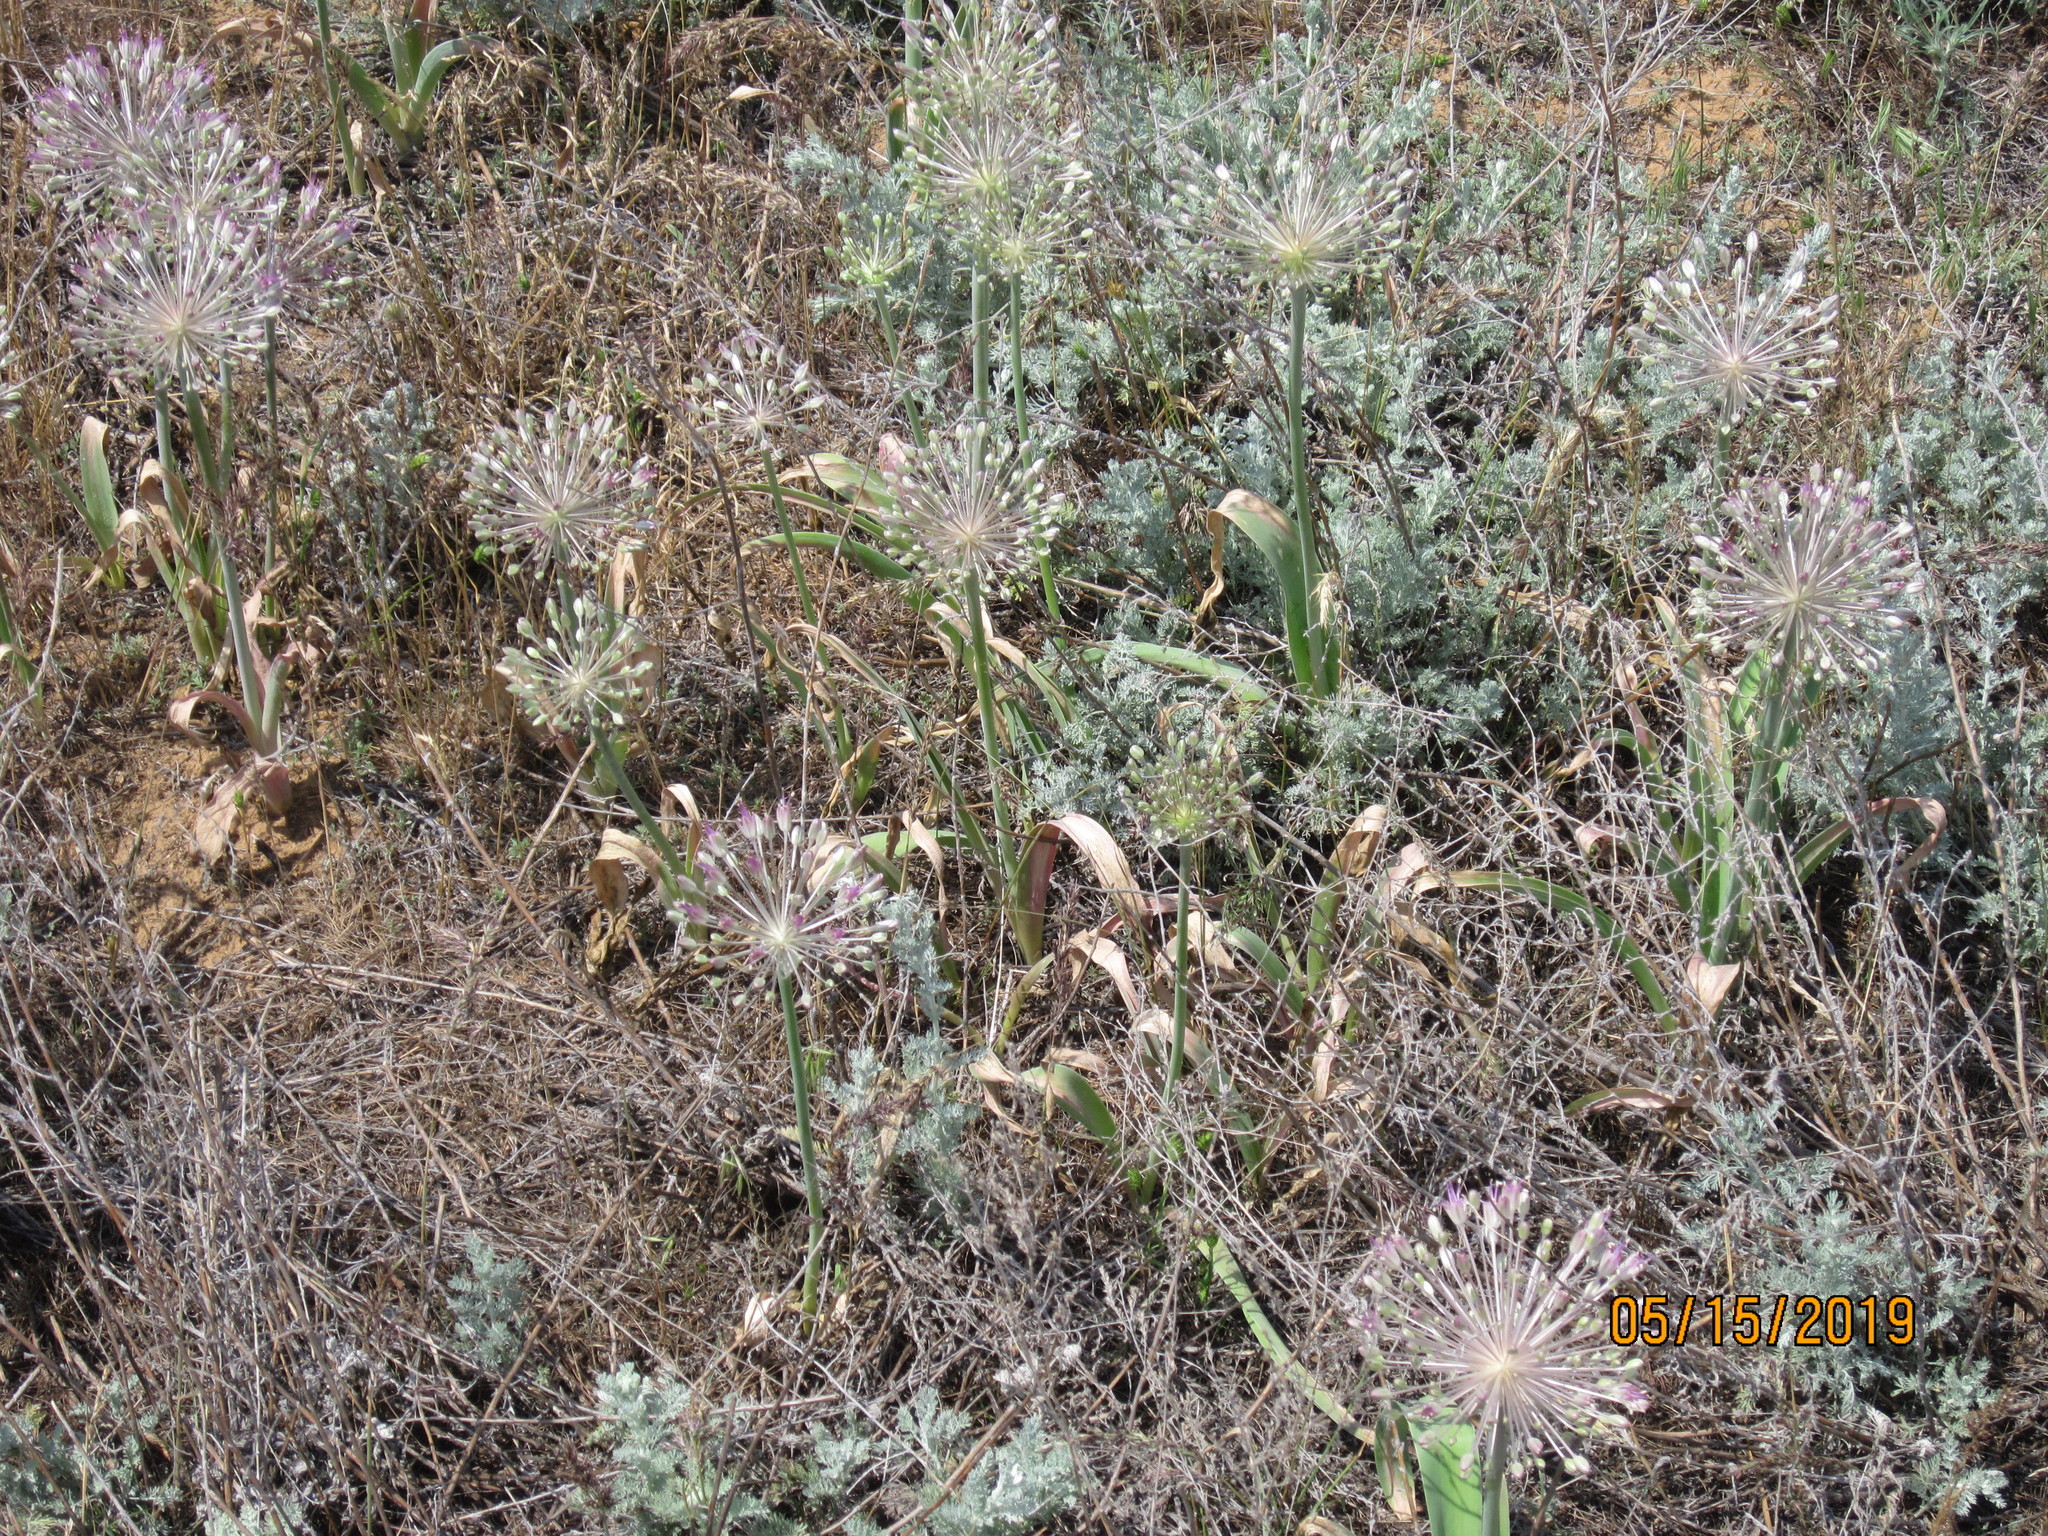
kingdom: Plantae
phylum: Tracheophyta
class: Liliopsida
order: Asparagales
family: Amaryllidaceae
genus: Allium
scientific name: Allium caspium
